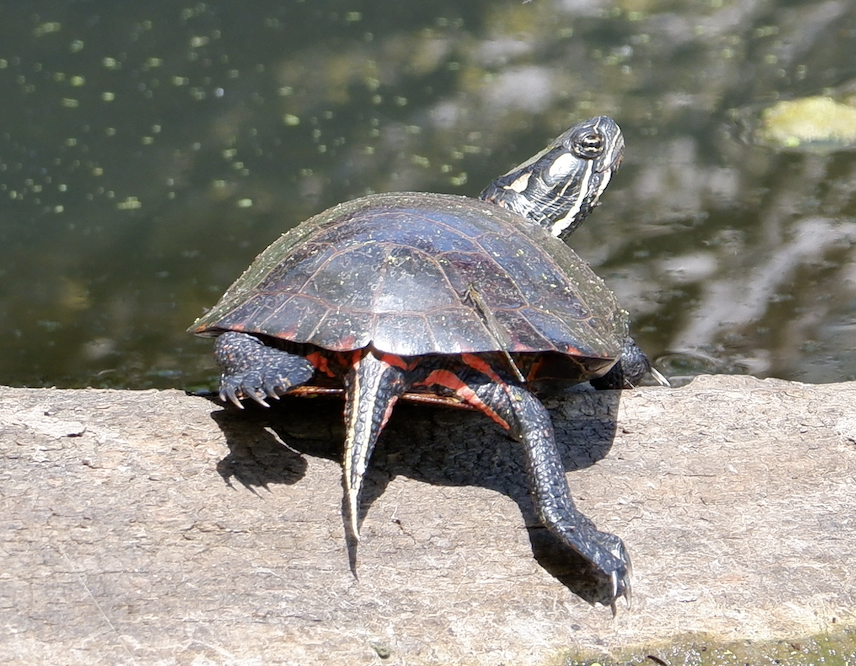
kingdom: Animalia
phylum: Chordata
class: Testudines
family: Emydidae
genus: Chrysemys
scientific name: Chrysemys picta
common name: Painted turtle
